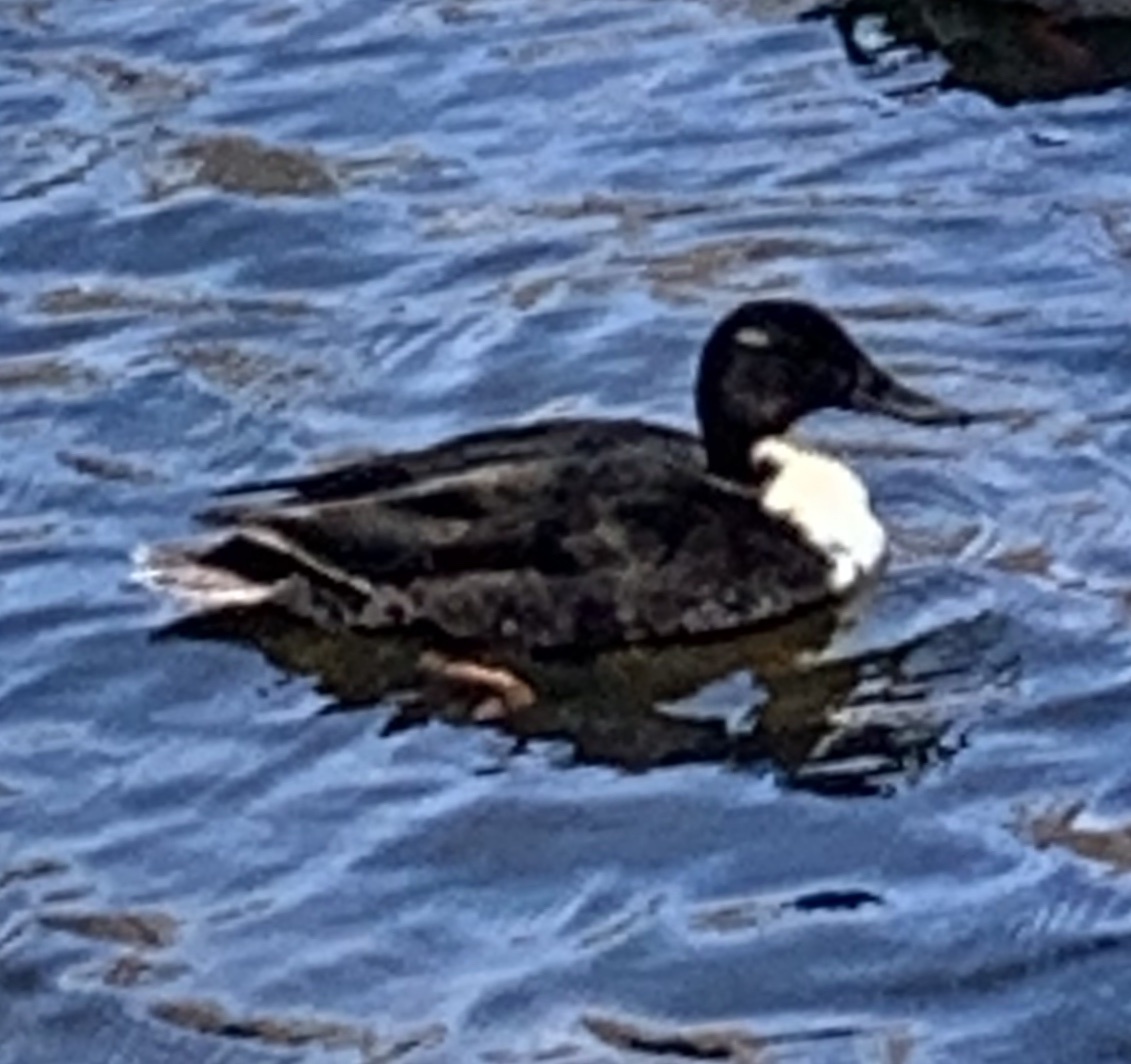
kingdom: Animalia
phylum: Chordata
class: Aves
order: Anseriformes
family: Anatidae
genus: Anas
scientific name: Anas platyrhynchos
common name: Mallard
